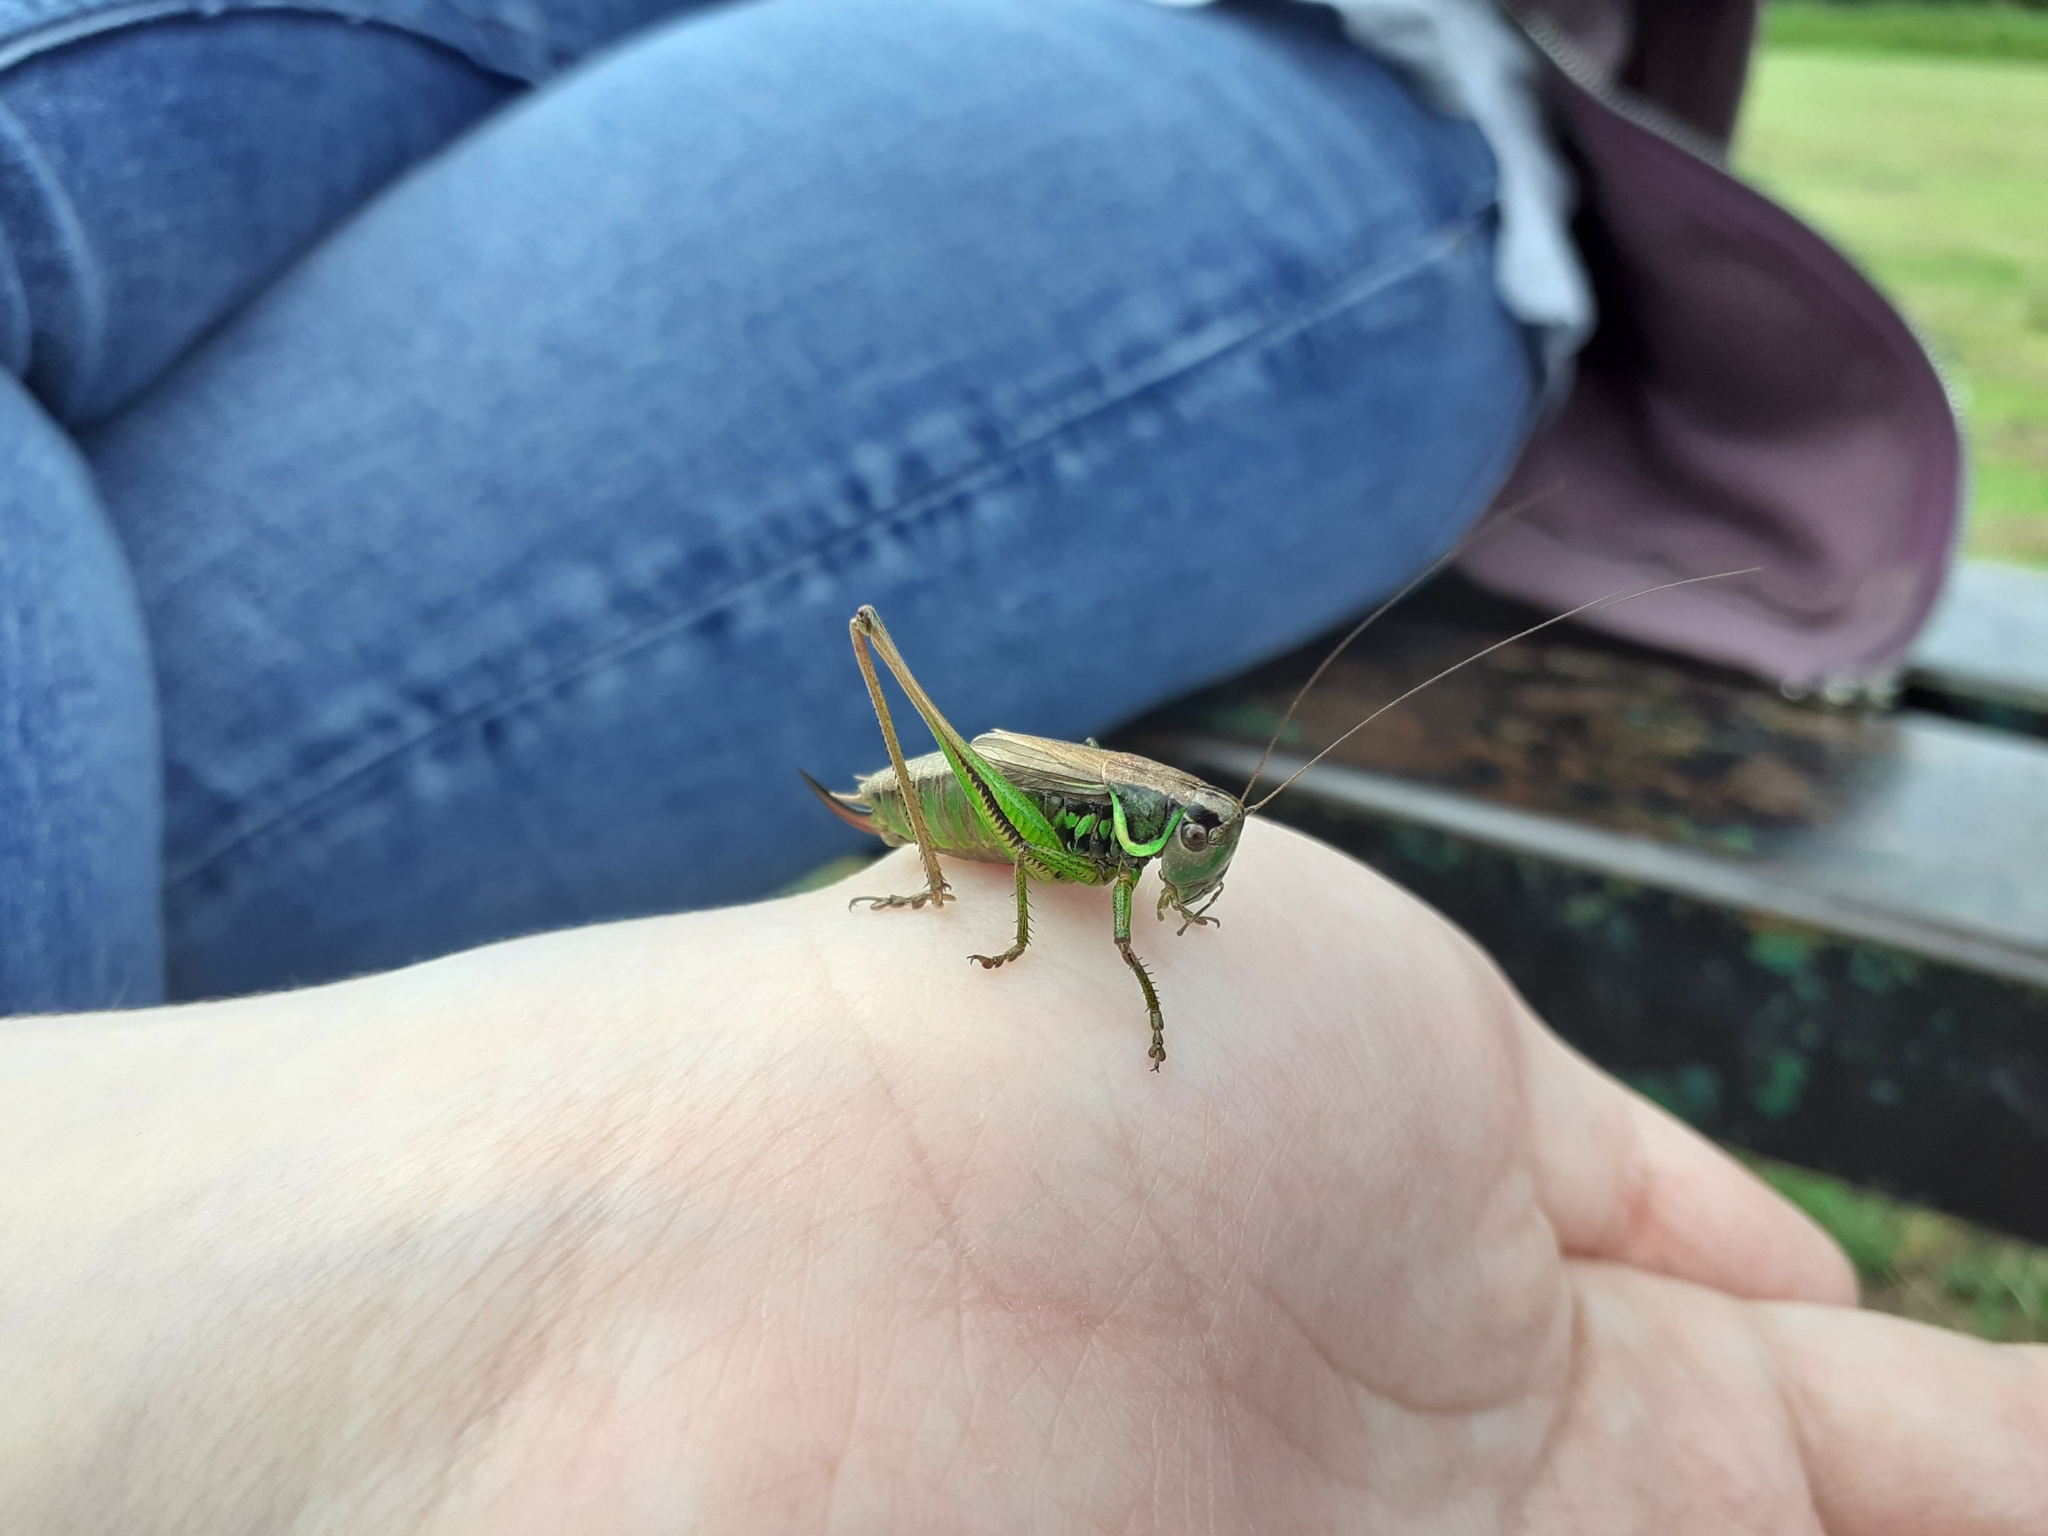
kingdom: Animalia
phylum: Arthropoda
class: Insecta
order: Orthoptera
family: Tettigoniidae
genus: Roeseliana
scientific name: Roeseliana roeselii
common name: Roesel's bush cricket
